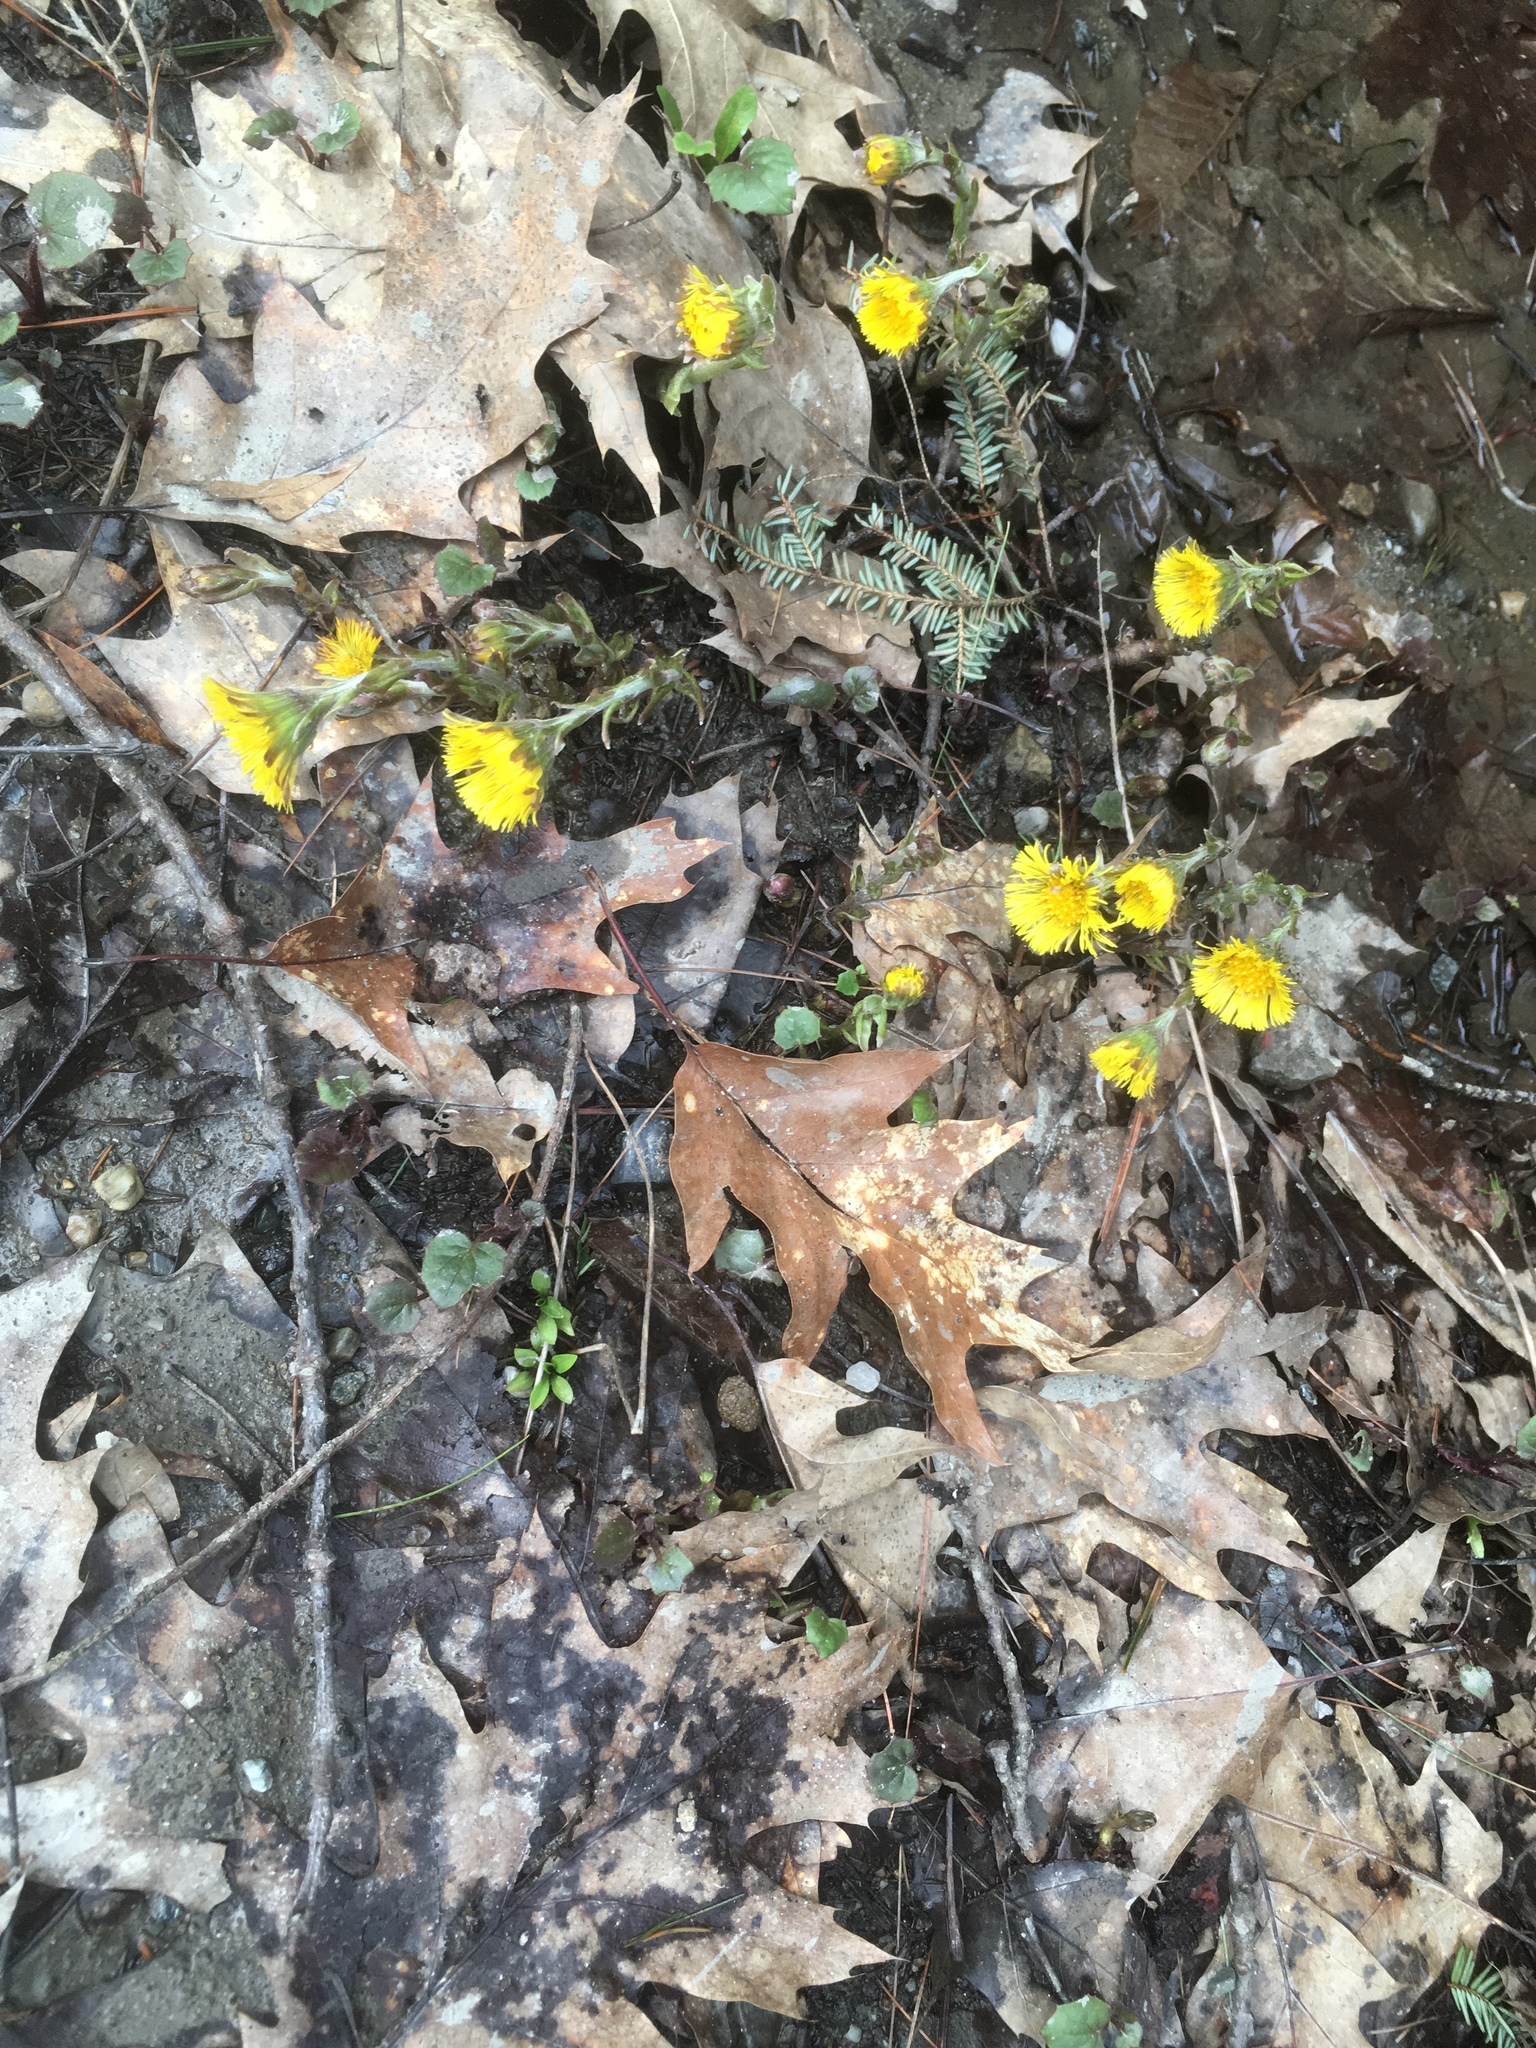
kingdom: Plantae
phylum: Tracheophyta
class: Magnoliopsida
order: Asterales
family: Asteraceae
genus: Tussilago
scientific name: Tussilago farfara
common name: Coltsfoot
